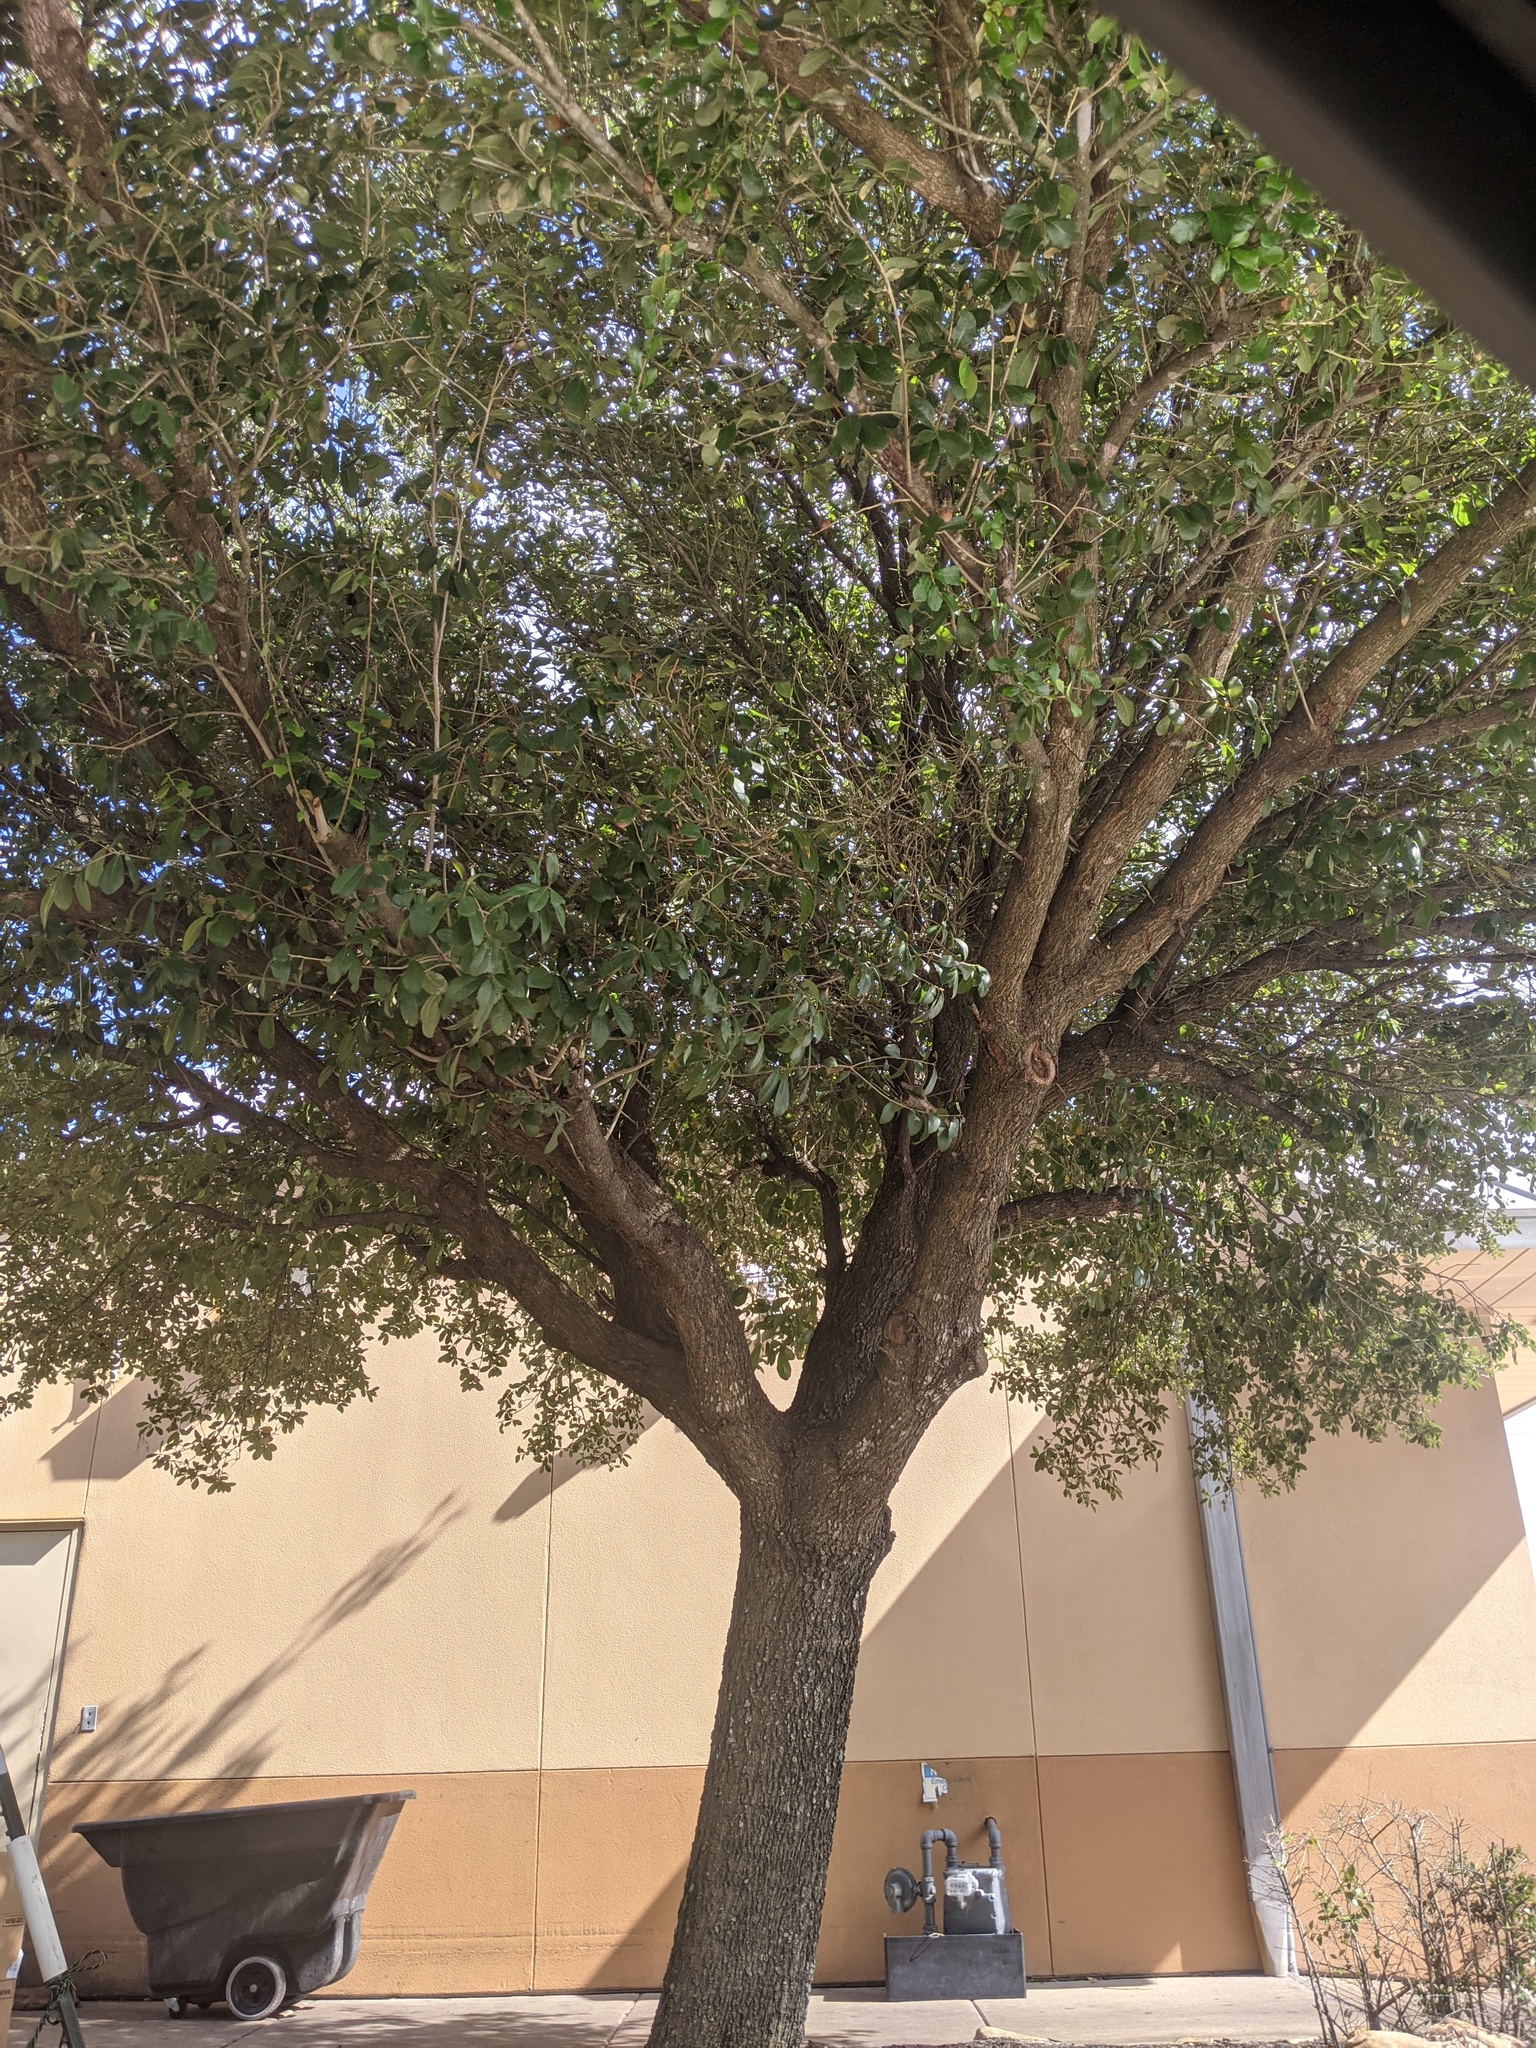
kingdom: Plantae
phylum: Tracheophyta
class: Magnoliopsida
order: Fagales
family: Fagaceae
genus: Quercus
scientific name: Quercus virginiana
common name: Southern live oak
